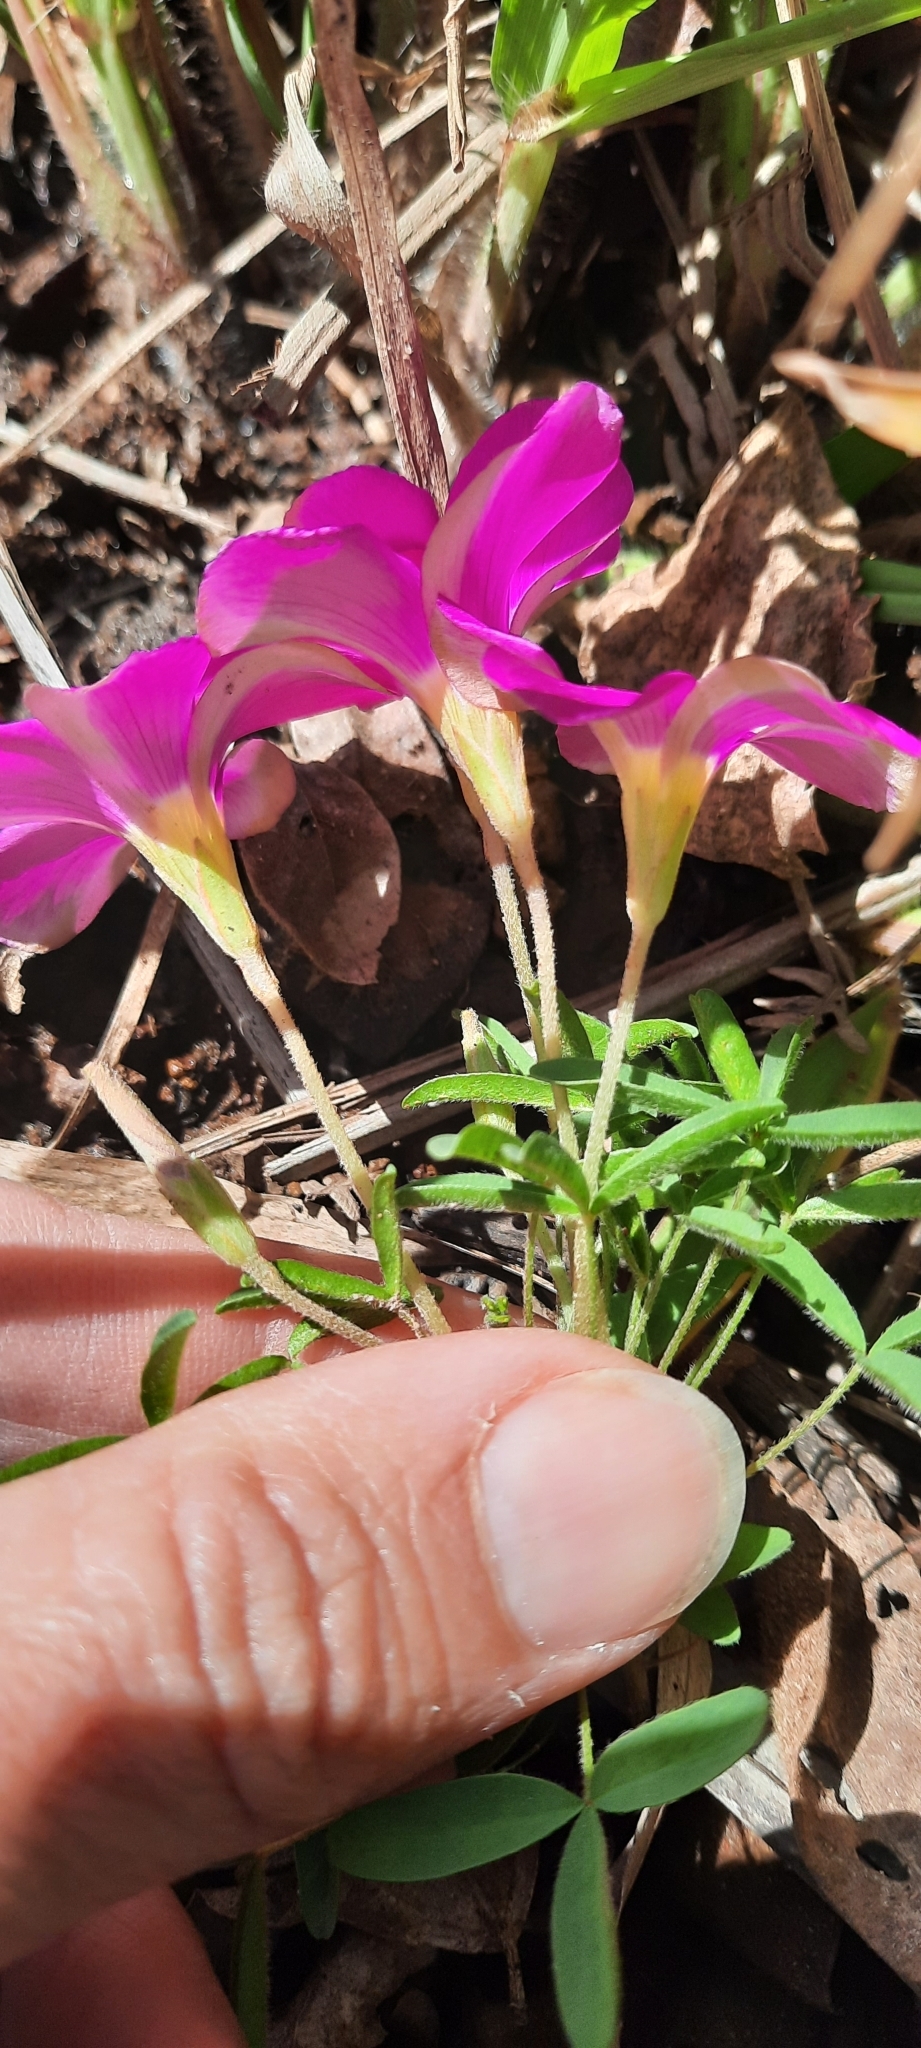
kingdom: Plantae
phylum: Tracheophyta
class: Magnoliopsida
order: Oxalidales
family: Oxalidaceae
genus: Oxalis
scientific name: Oxalis ciliaris
